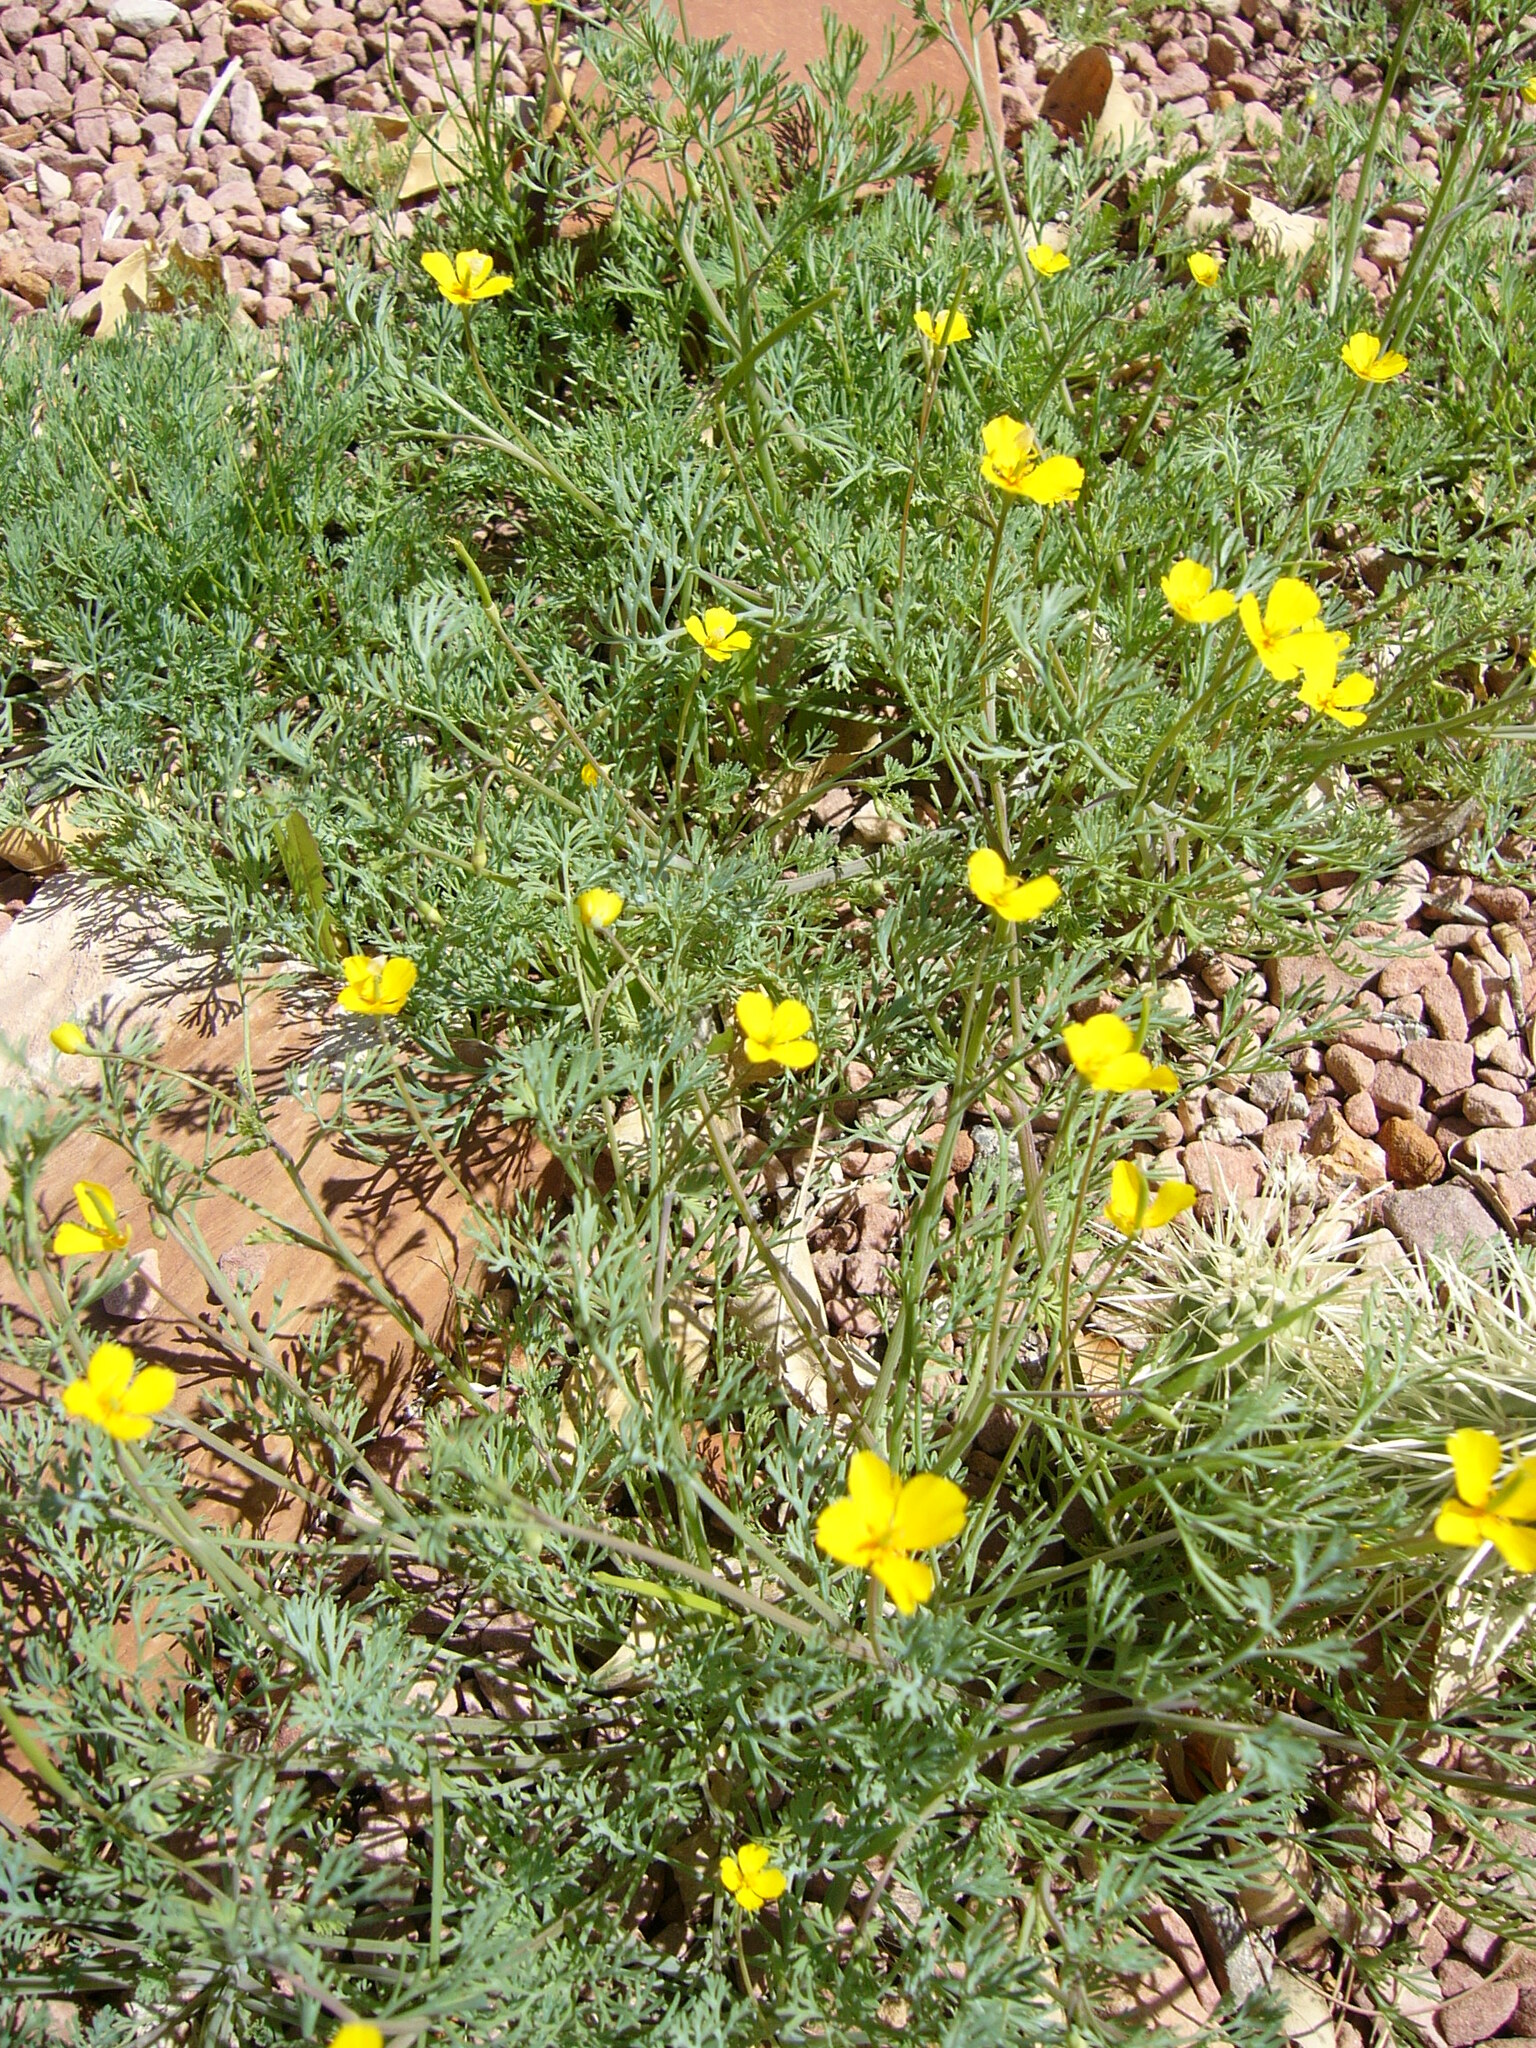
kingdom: Plantae
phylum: Tracheophyta
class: Magnoliopsida
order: Ranunculales
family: Papaveraceae
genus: Eschscholzia
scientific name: Eschscholzia minutiflora
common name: Small-flower california-poppy
